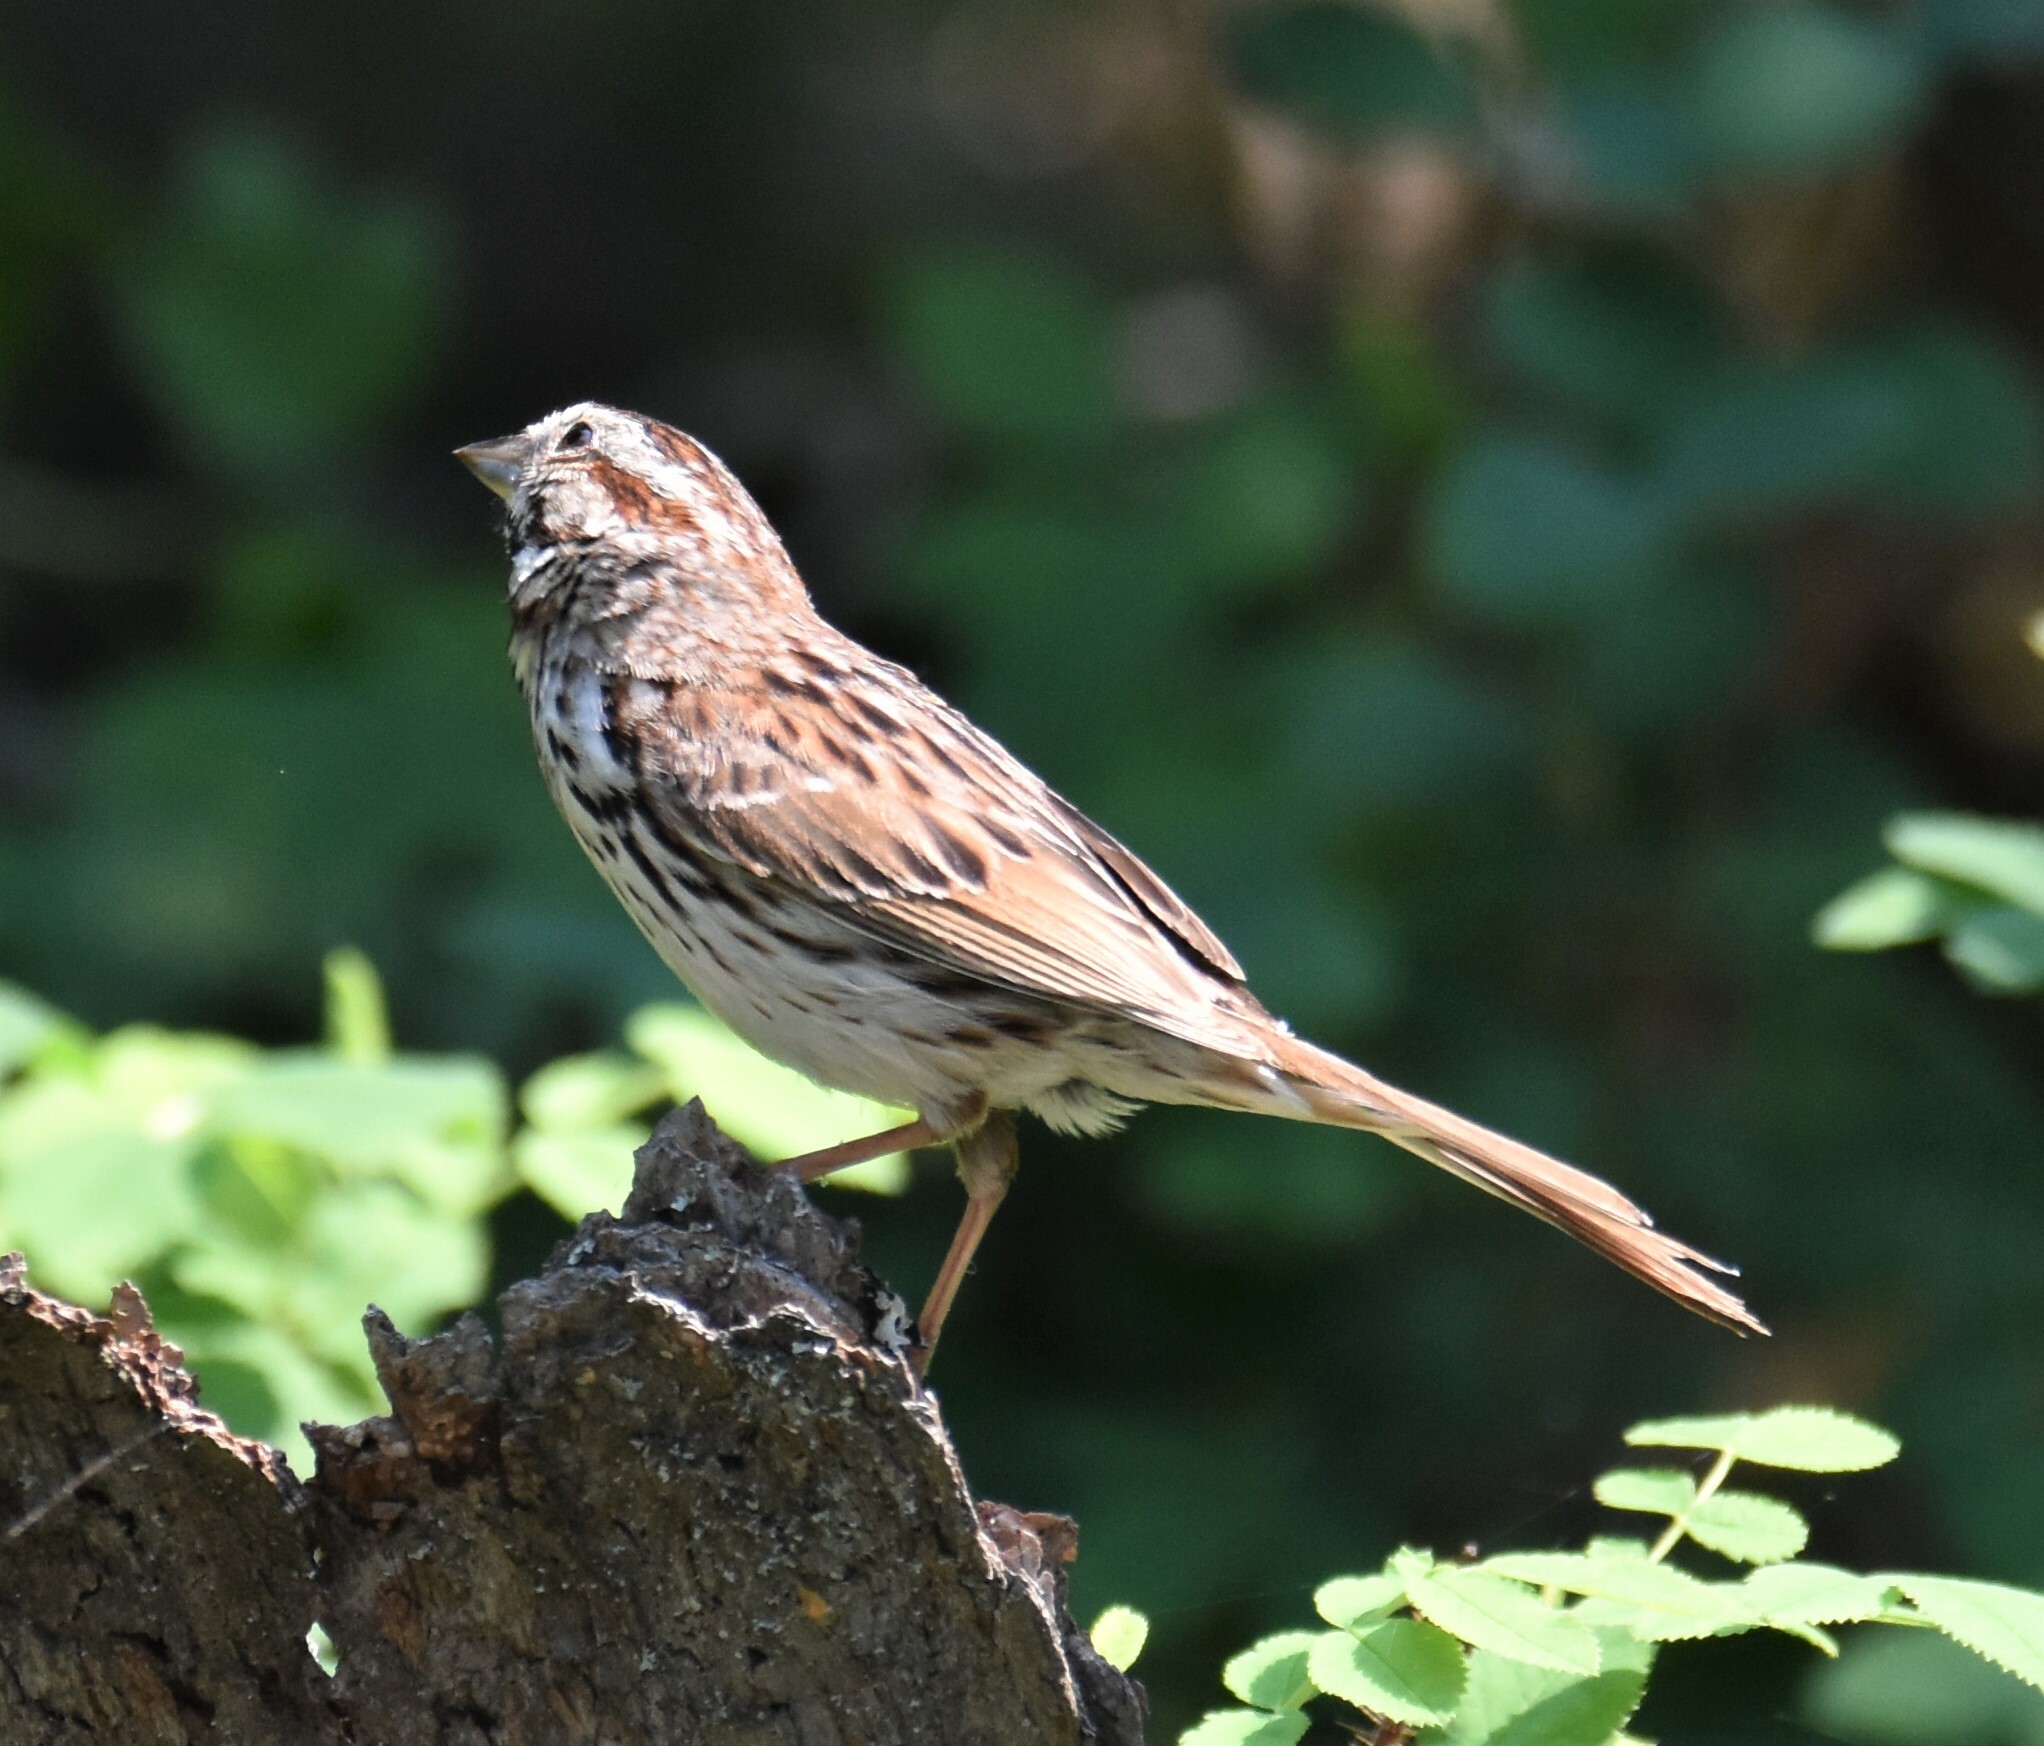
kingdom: Animalia
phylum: Chordata
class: Aves
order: Passeriformes
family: Passerellidae
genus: Melospiza
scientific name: Melospiza melodia
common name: Song sparrow
